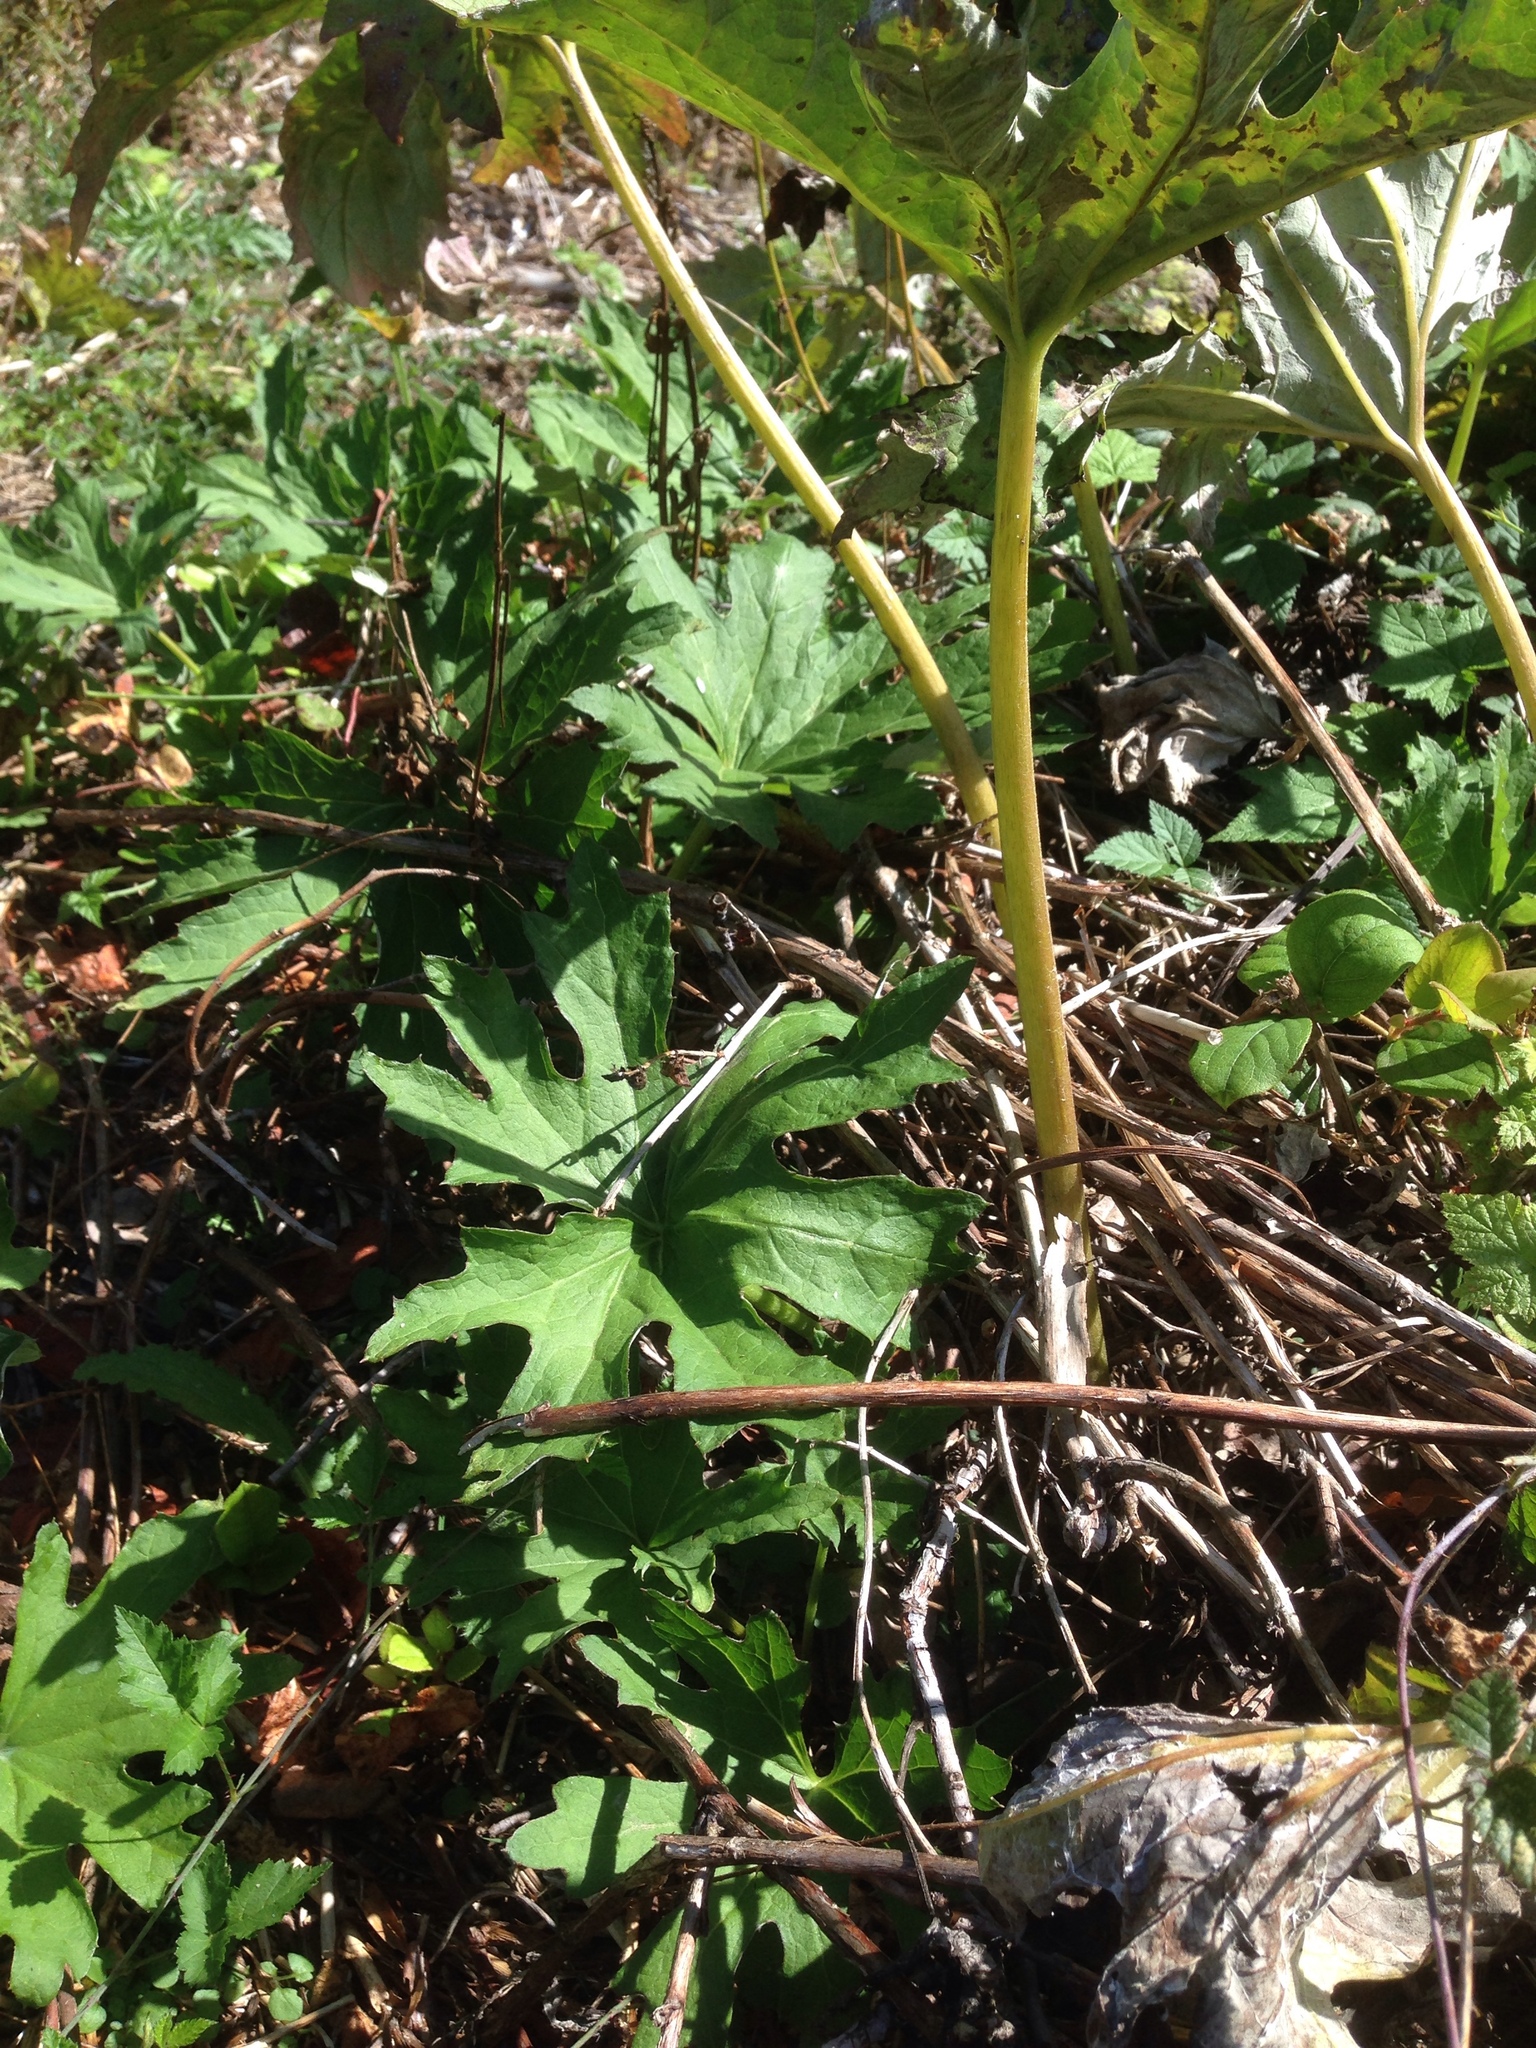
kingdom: Plantae
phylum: Tracheophyta
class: Magnoliopsida
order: Asterales
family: Asteraceae
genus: Petasites
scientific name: Petasites frigidus
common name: Arctic butterbur
